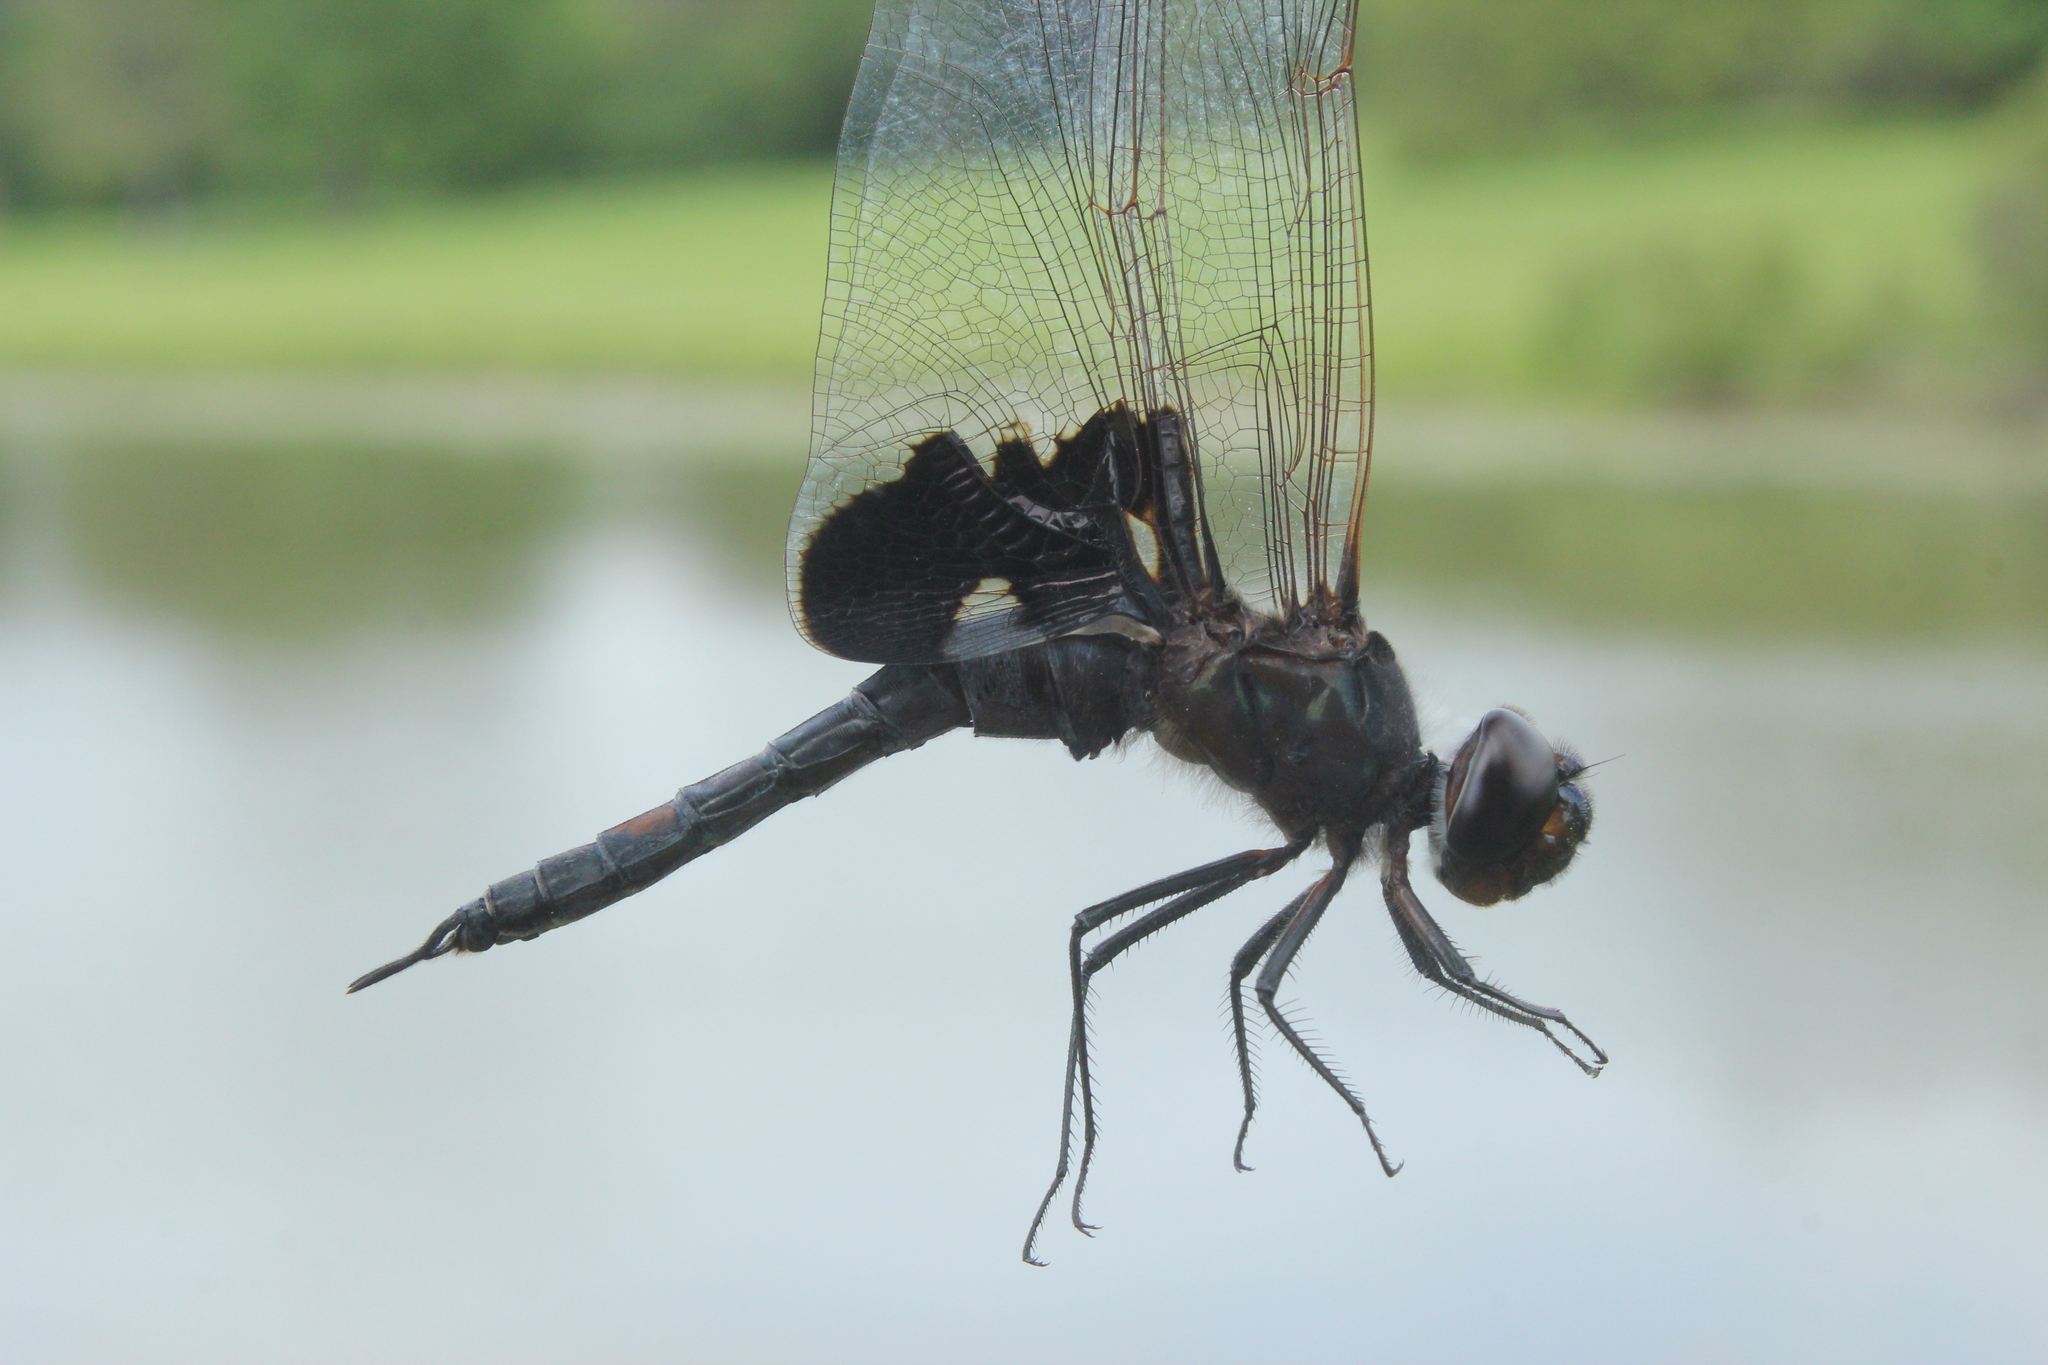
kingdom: Animalia
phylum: Arthropoda
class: Insecta
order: Odonata
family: Libellulidae
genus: Tramea
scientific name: Tramea lacerata
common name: Black saddlebags
